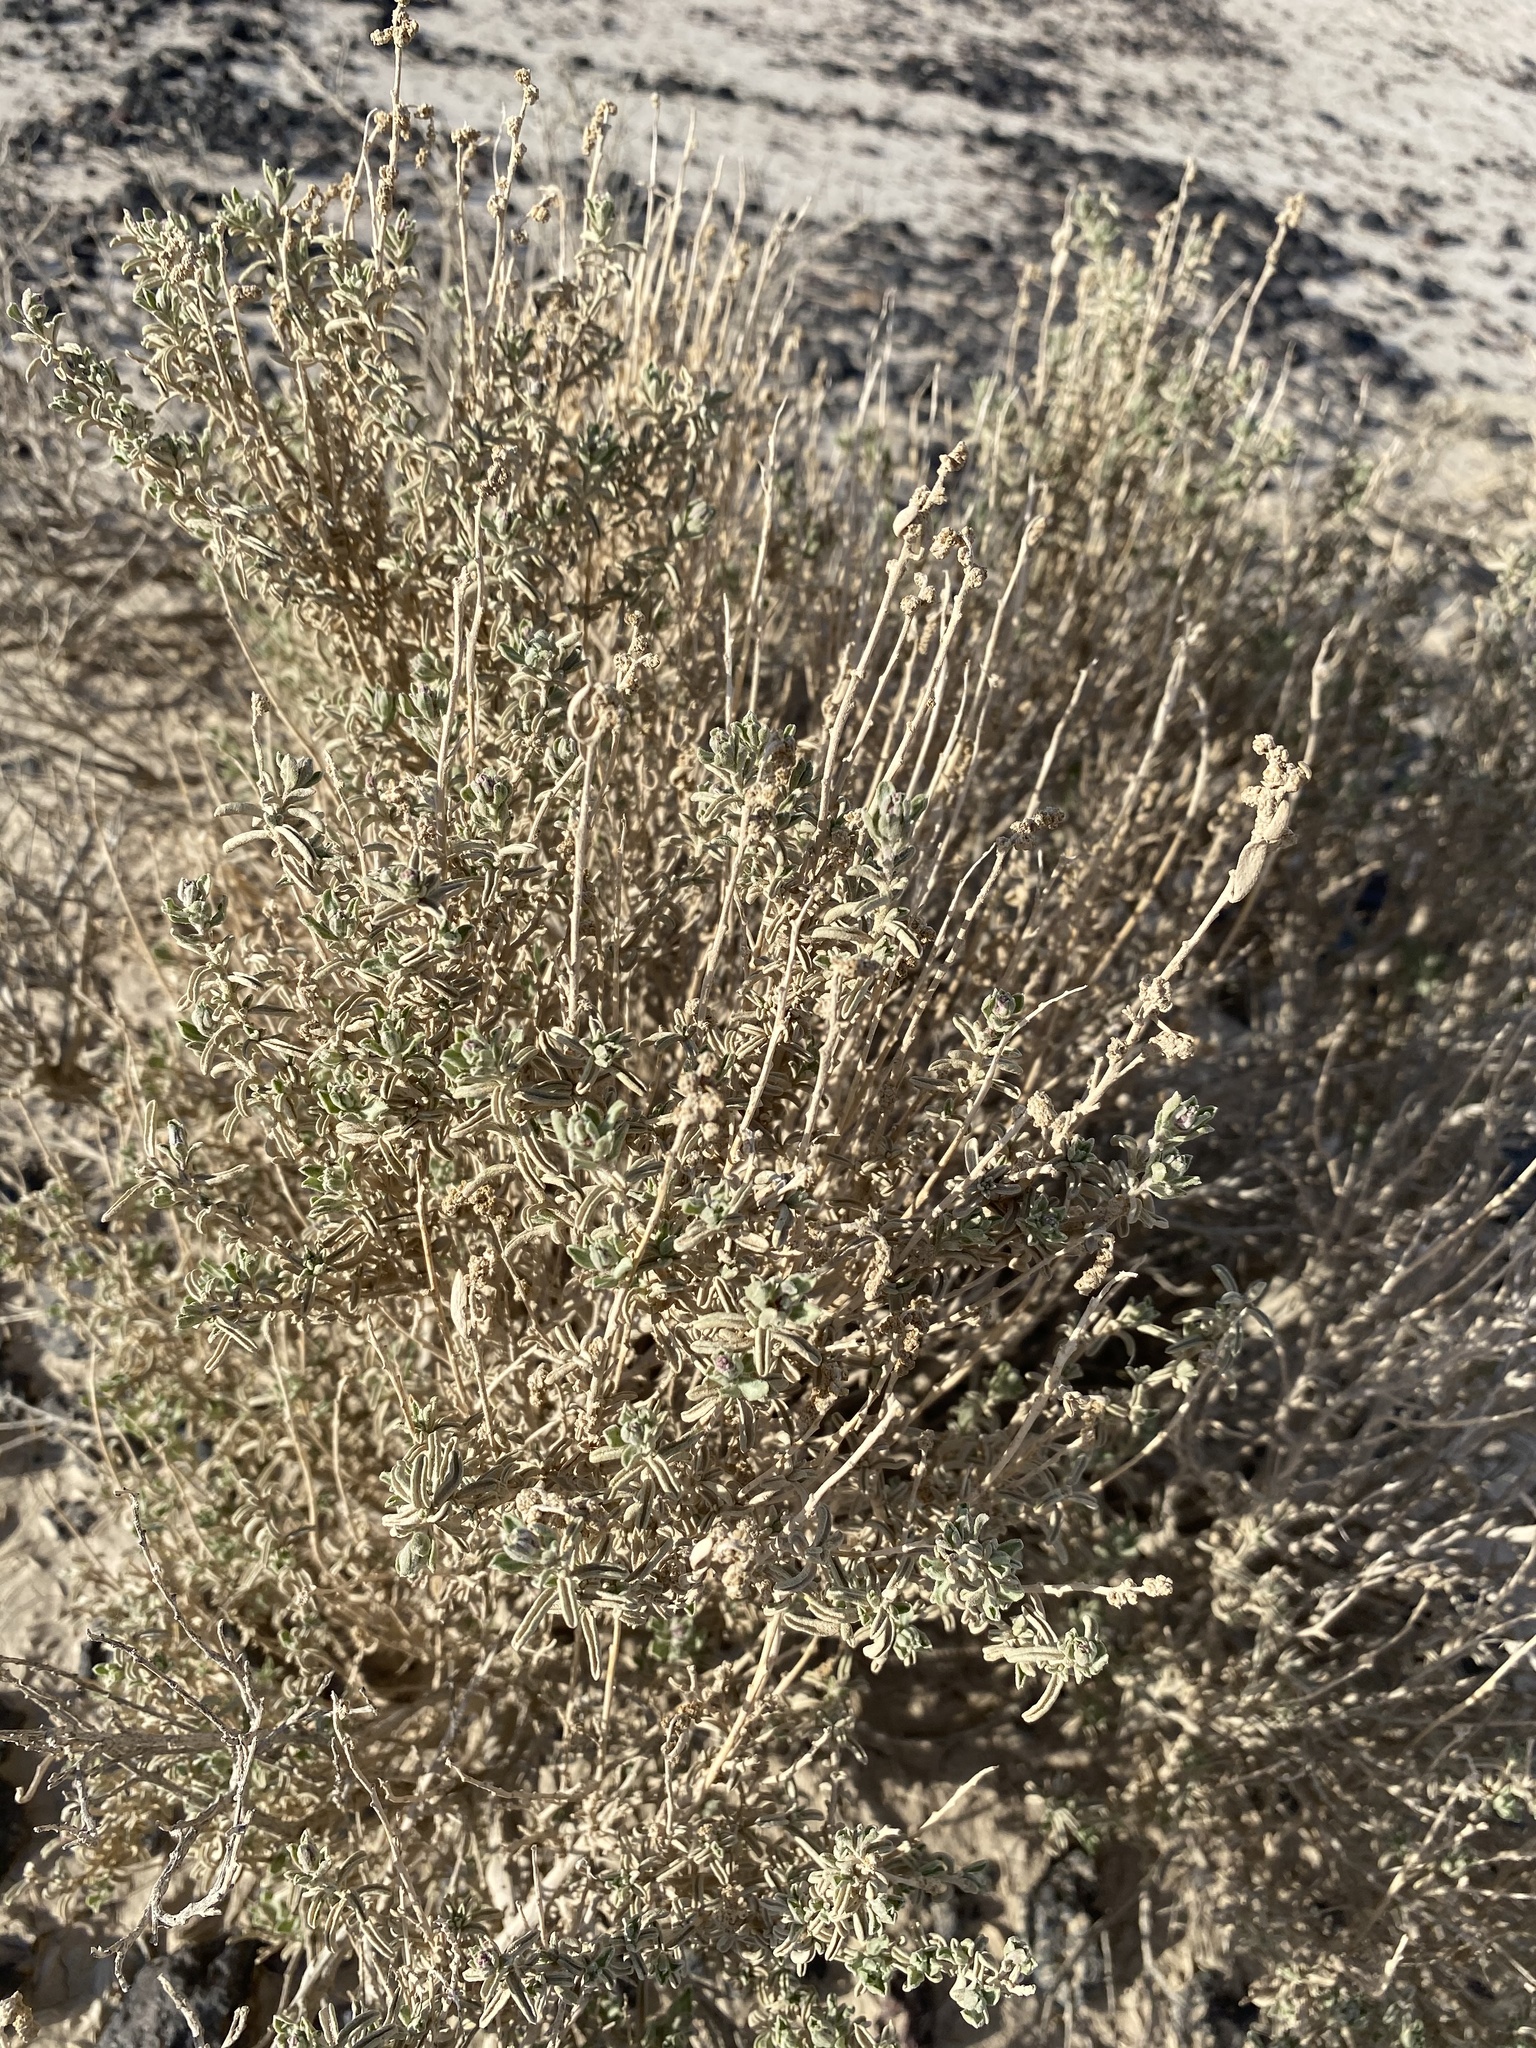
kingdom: Plantae
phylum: Tracheophyta
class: Magnoliopsida
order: Caryophyllales
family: Amaranthaceae
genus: Atriplex
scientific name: Atriplex confertifolia
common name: Shadscale
